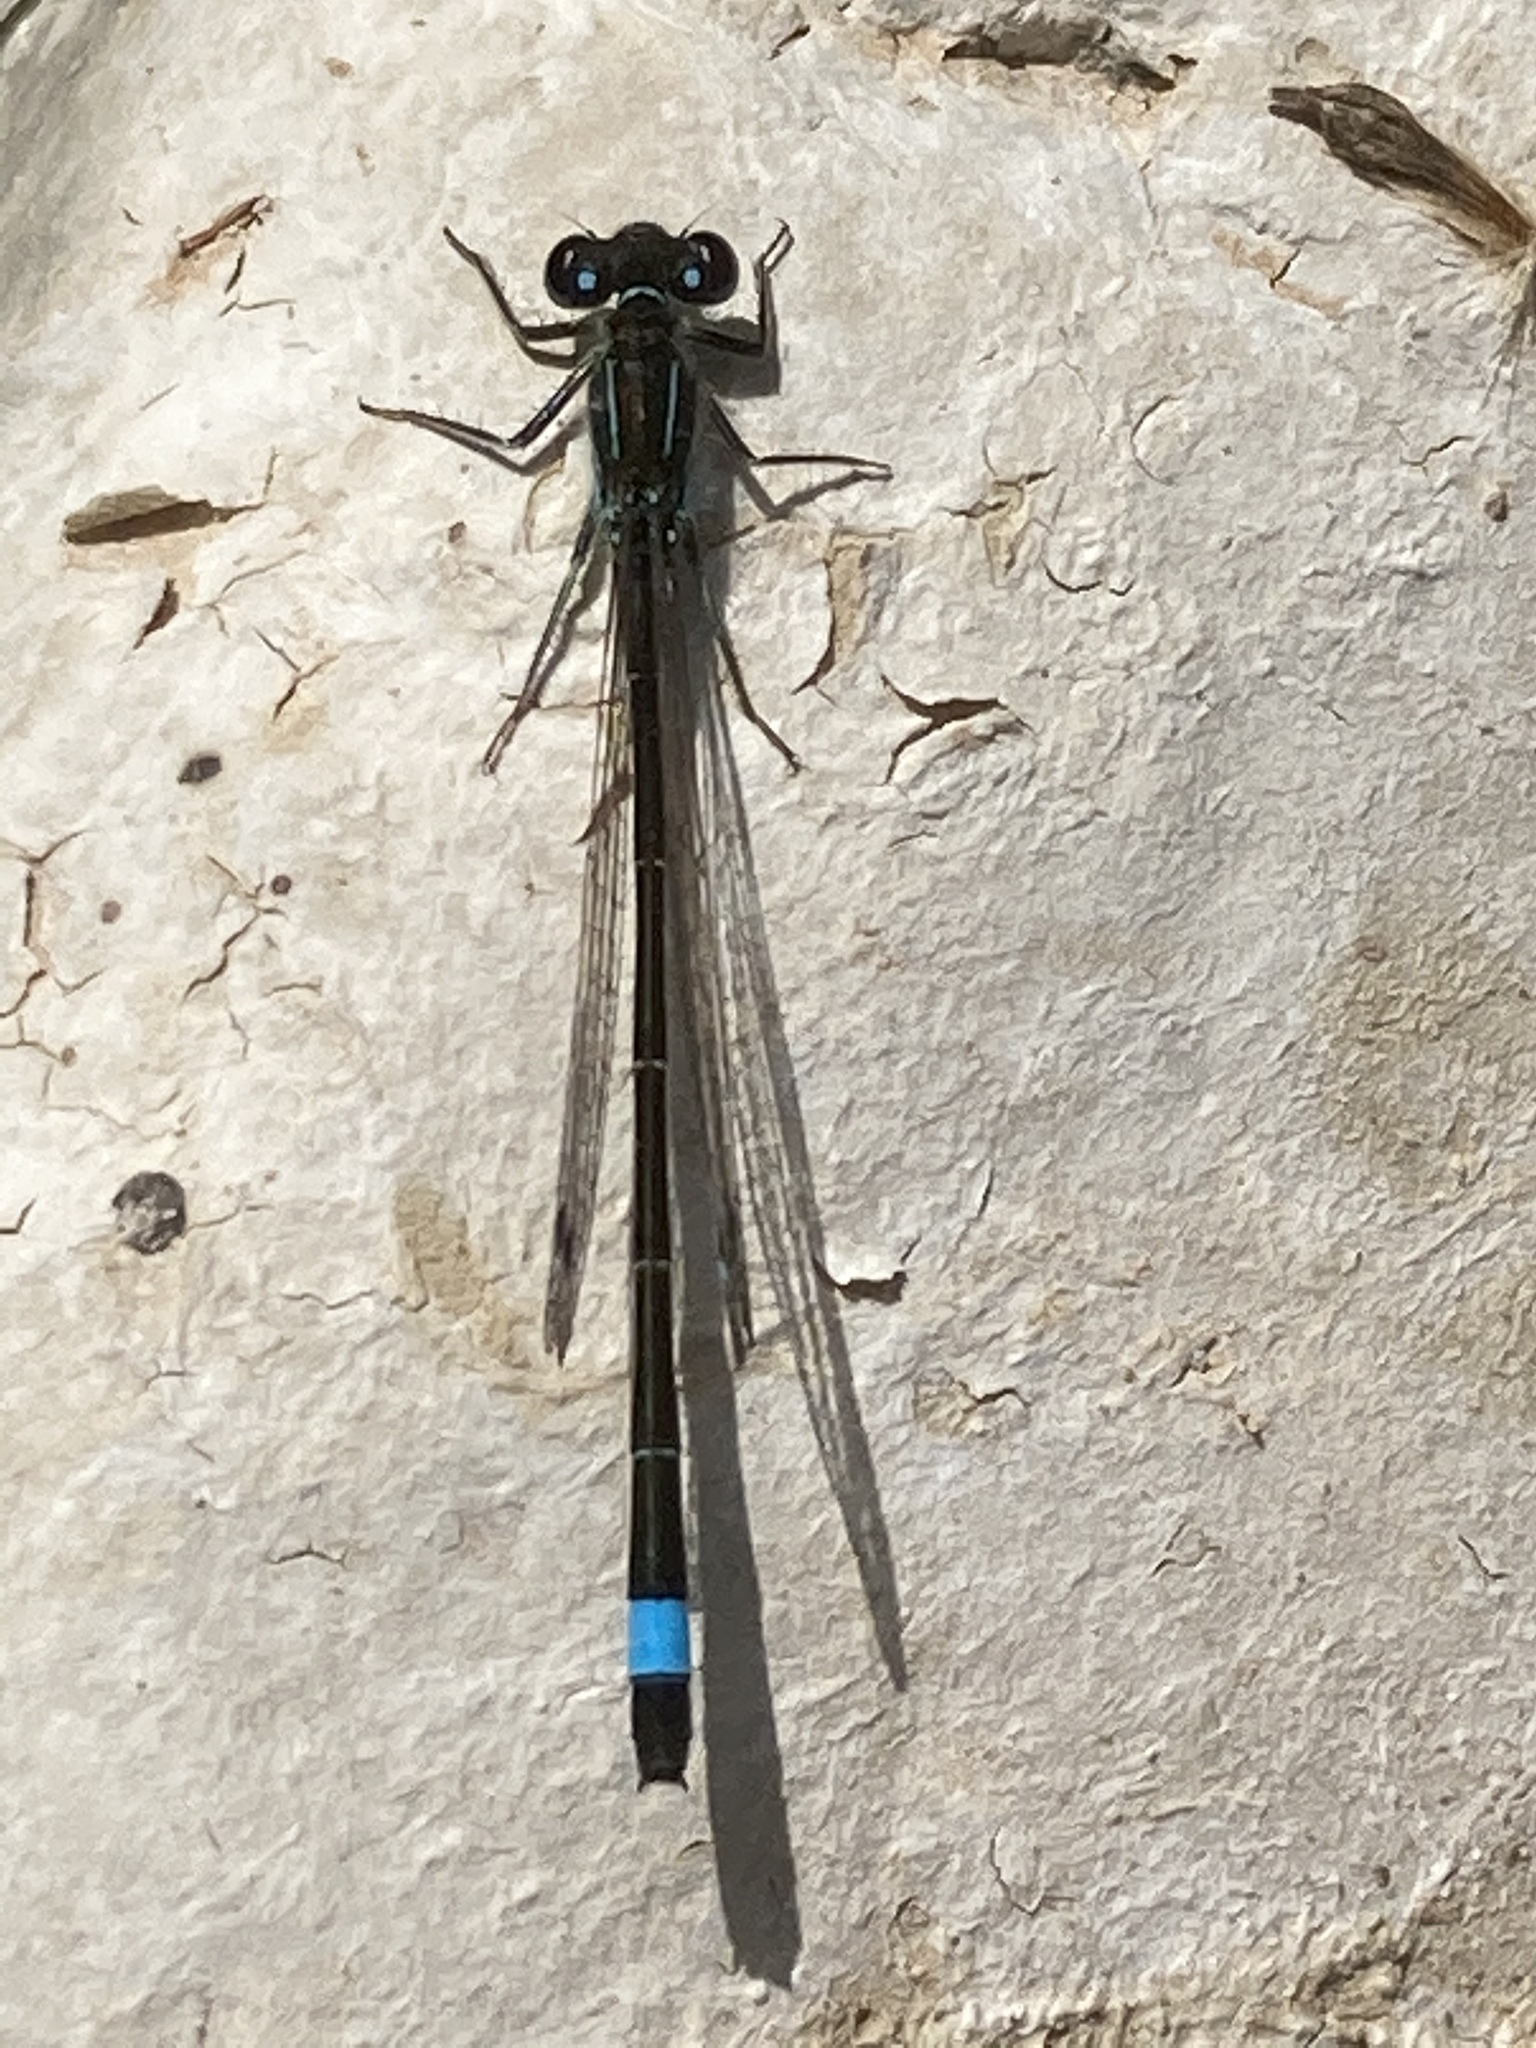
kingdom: Animalia
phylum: Arthropoda
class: Insecta
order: Odonata
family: Coenagrionidae
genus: Ischnura
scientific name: Ischnura elegans
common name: Blue-tailed damselfly
